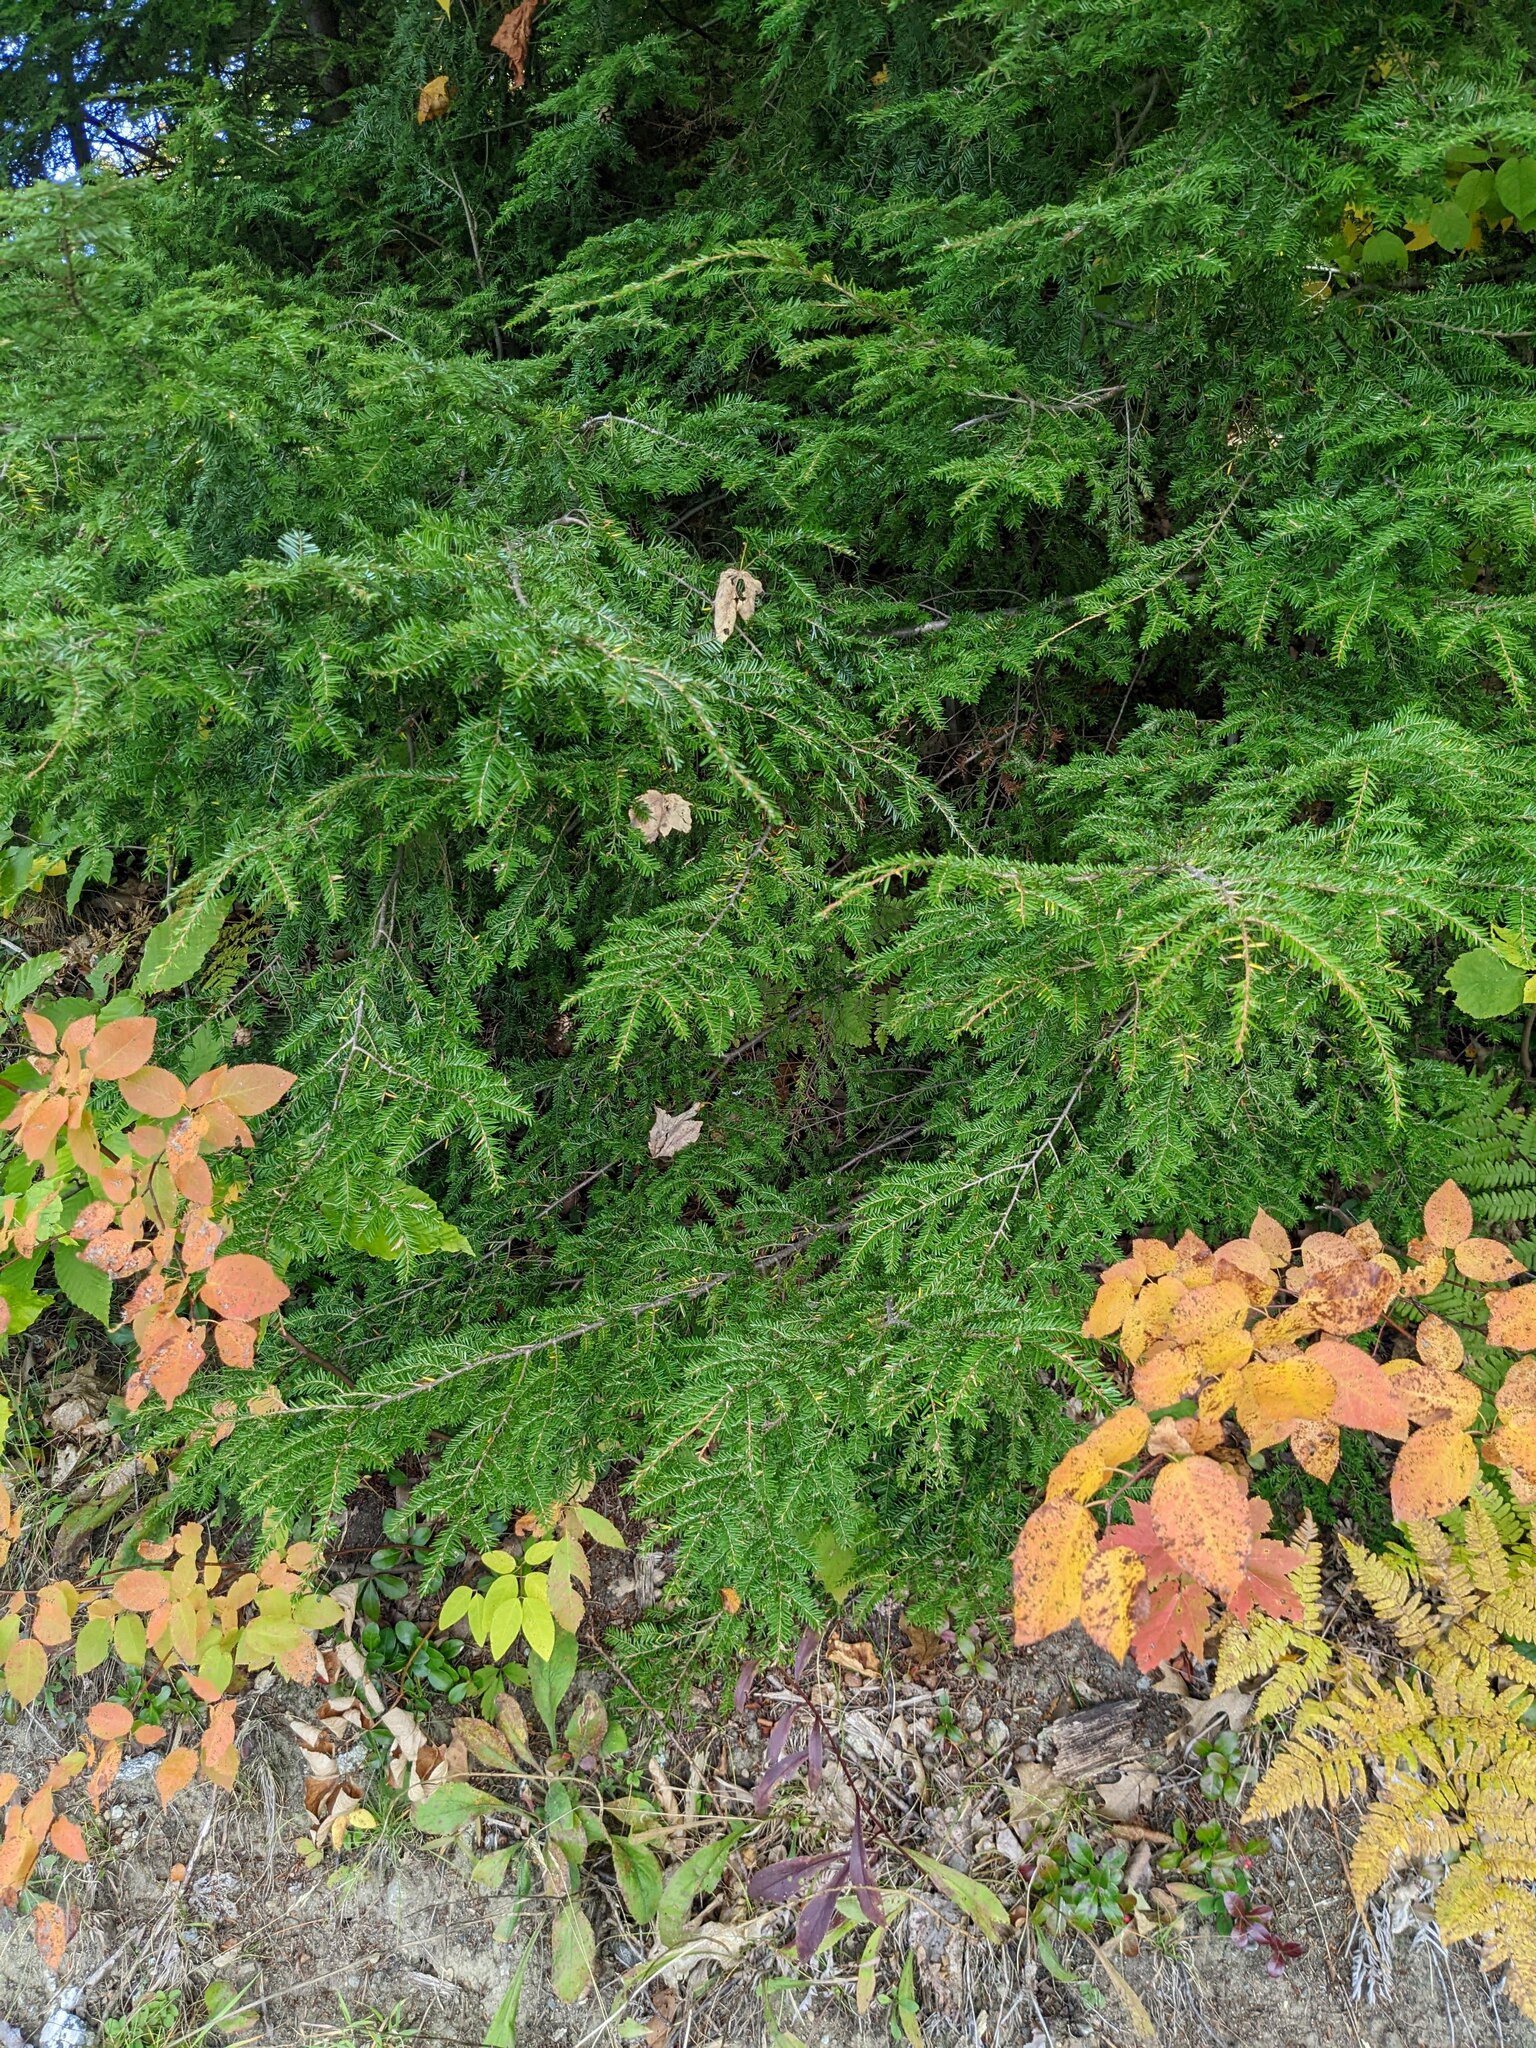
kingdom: Plantae
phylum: Tracheophyta
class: Pinopsida
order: Pinales
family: Pinaceae
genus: Tsuga
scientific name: Tsuga canadensis
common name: Eastern hemlock
